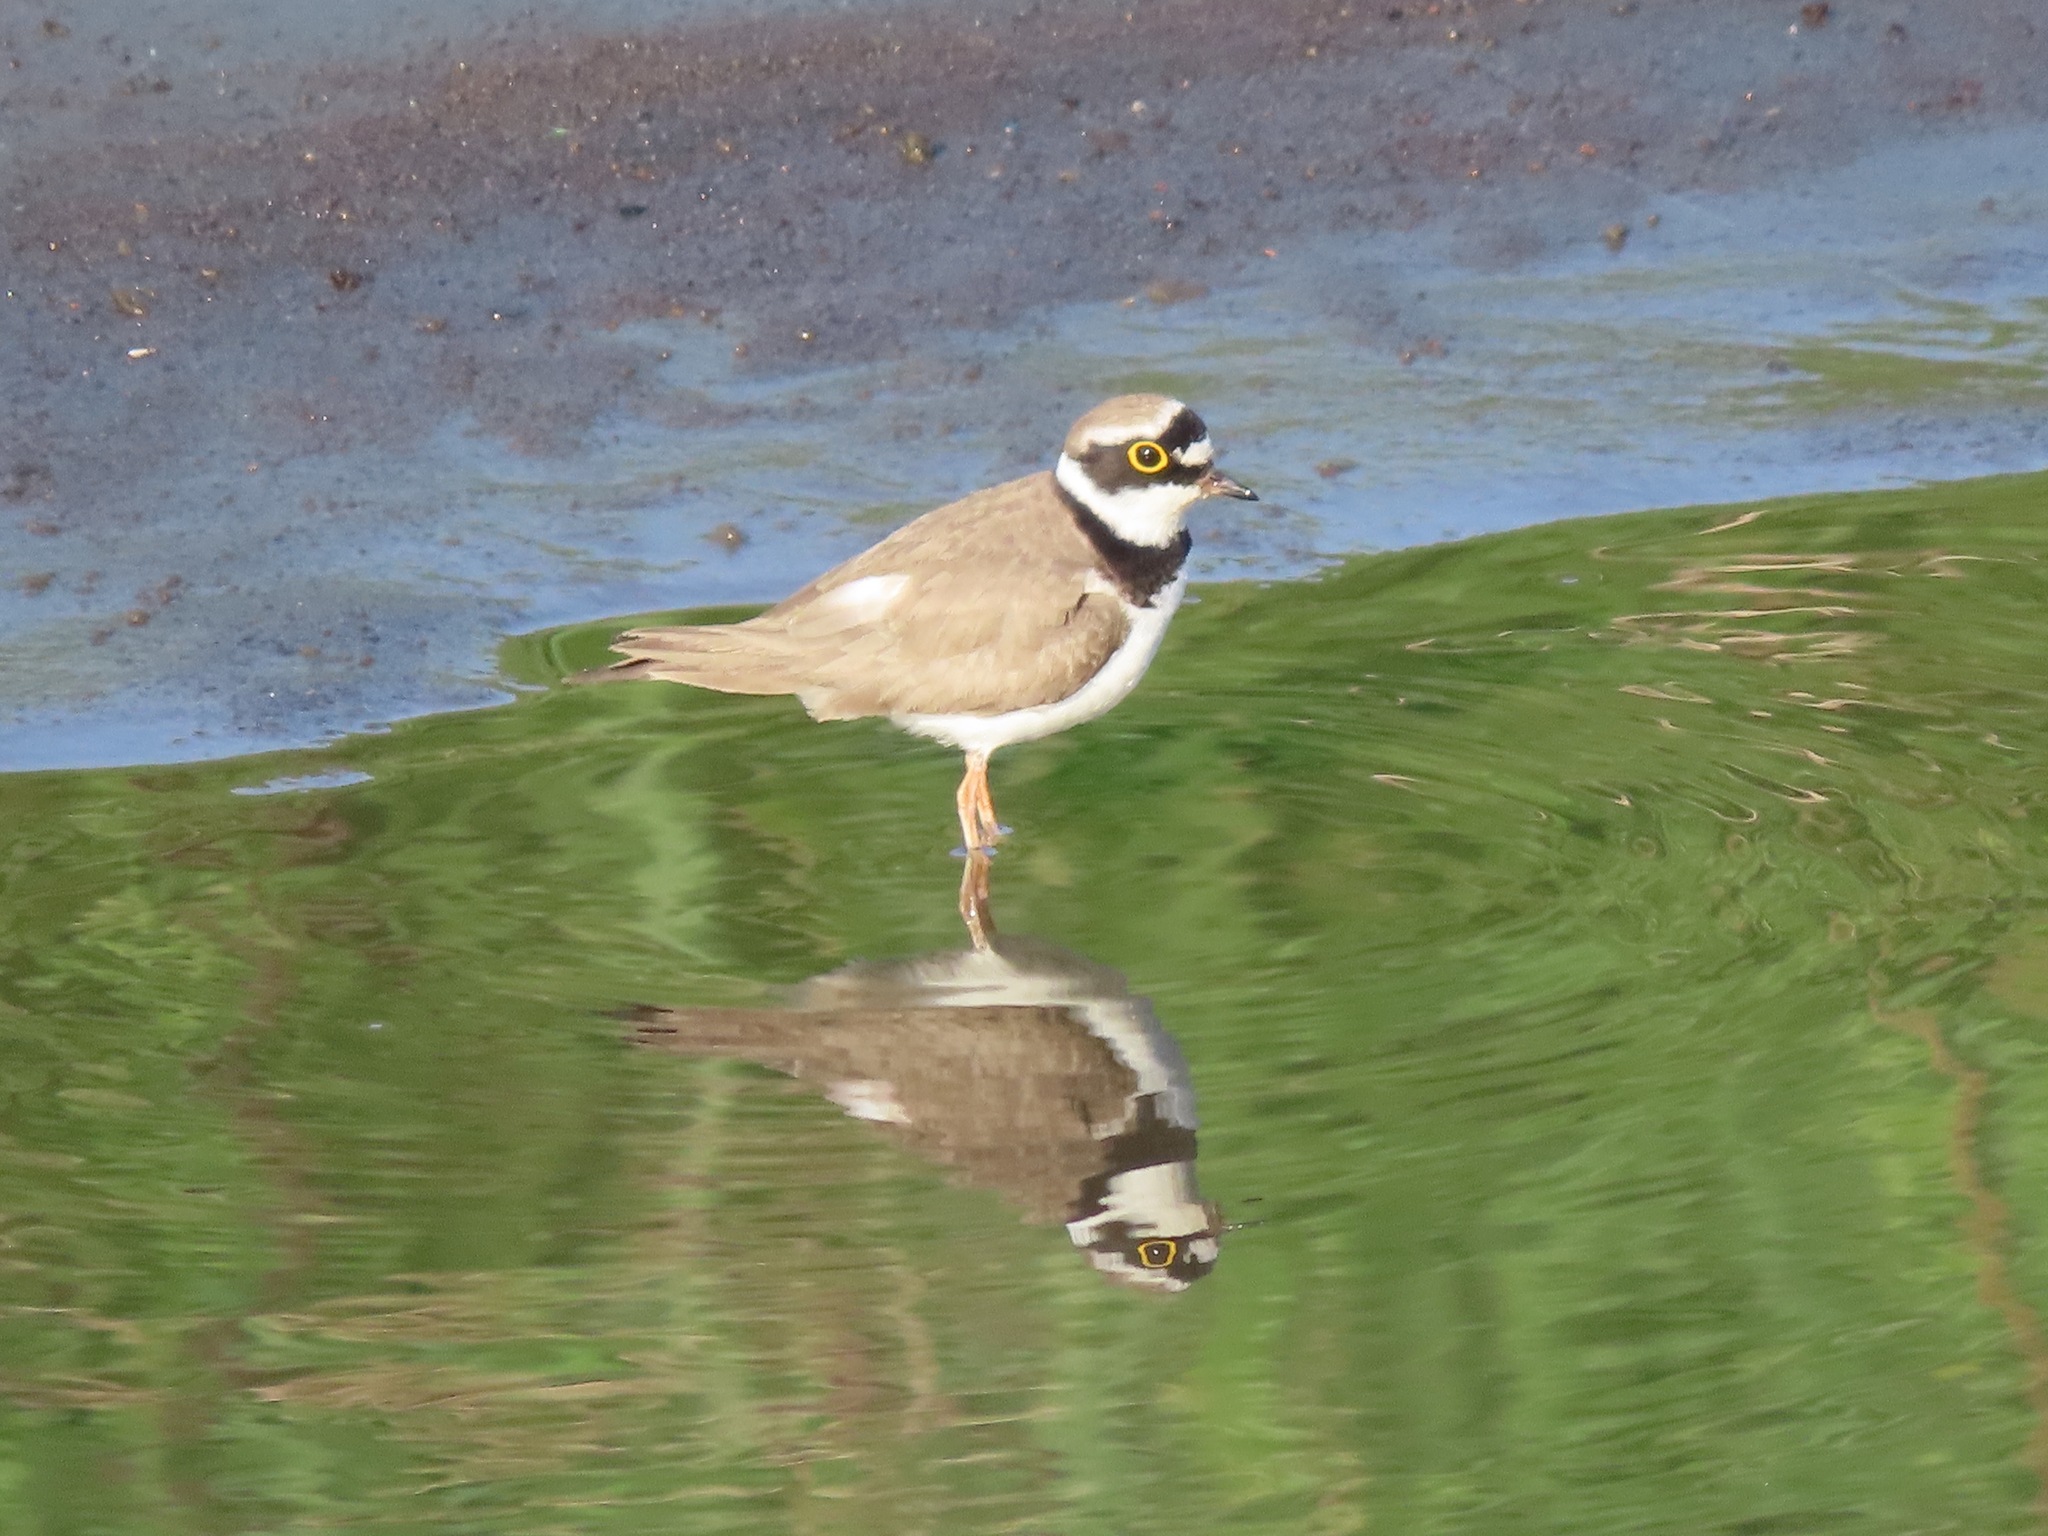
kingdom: Animalia
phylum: Chordata
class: Aves
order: Charadriiformes
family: Charadriidae
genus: Charadrius
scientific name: Charadrius dubius
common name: Little ringed plover
